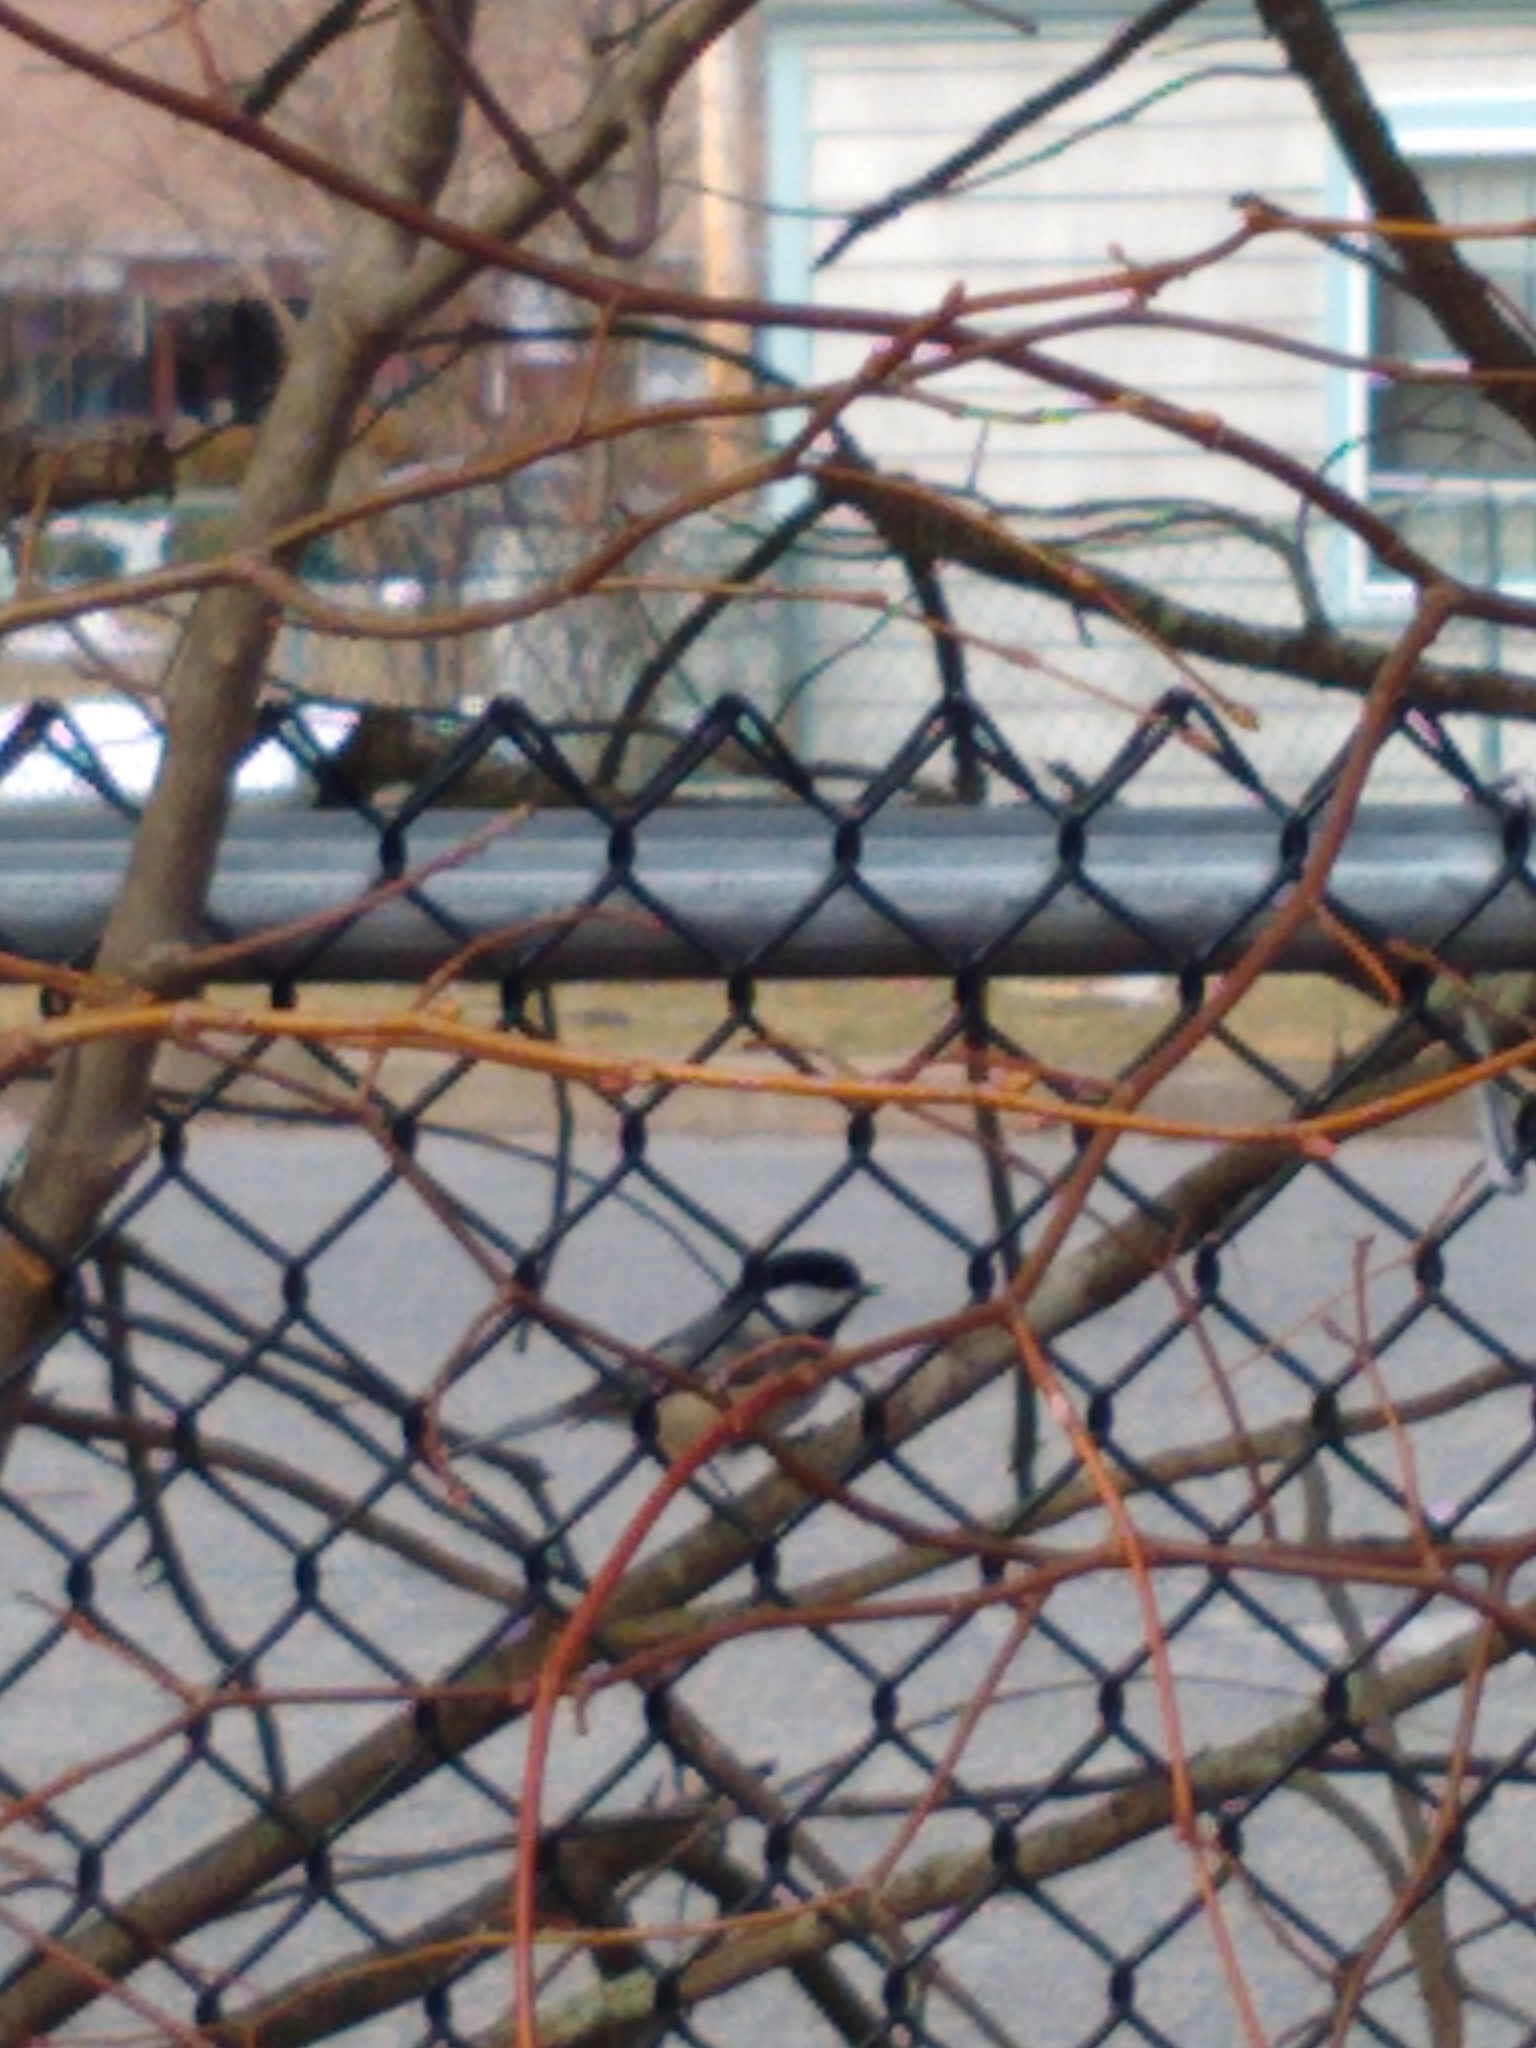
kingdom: Animalia
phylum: Chordata
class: Aves
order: Passeriformes
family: Paridae
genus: Poecile
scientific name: Poecile atricapillus
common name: Black-capped chickadee
